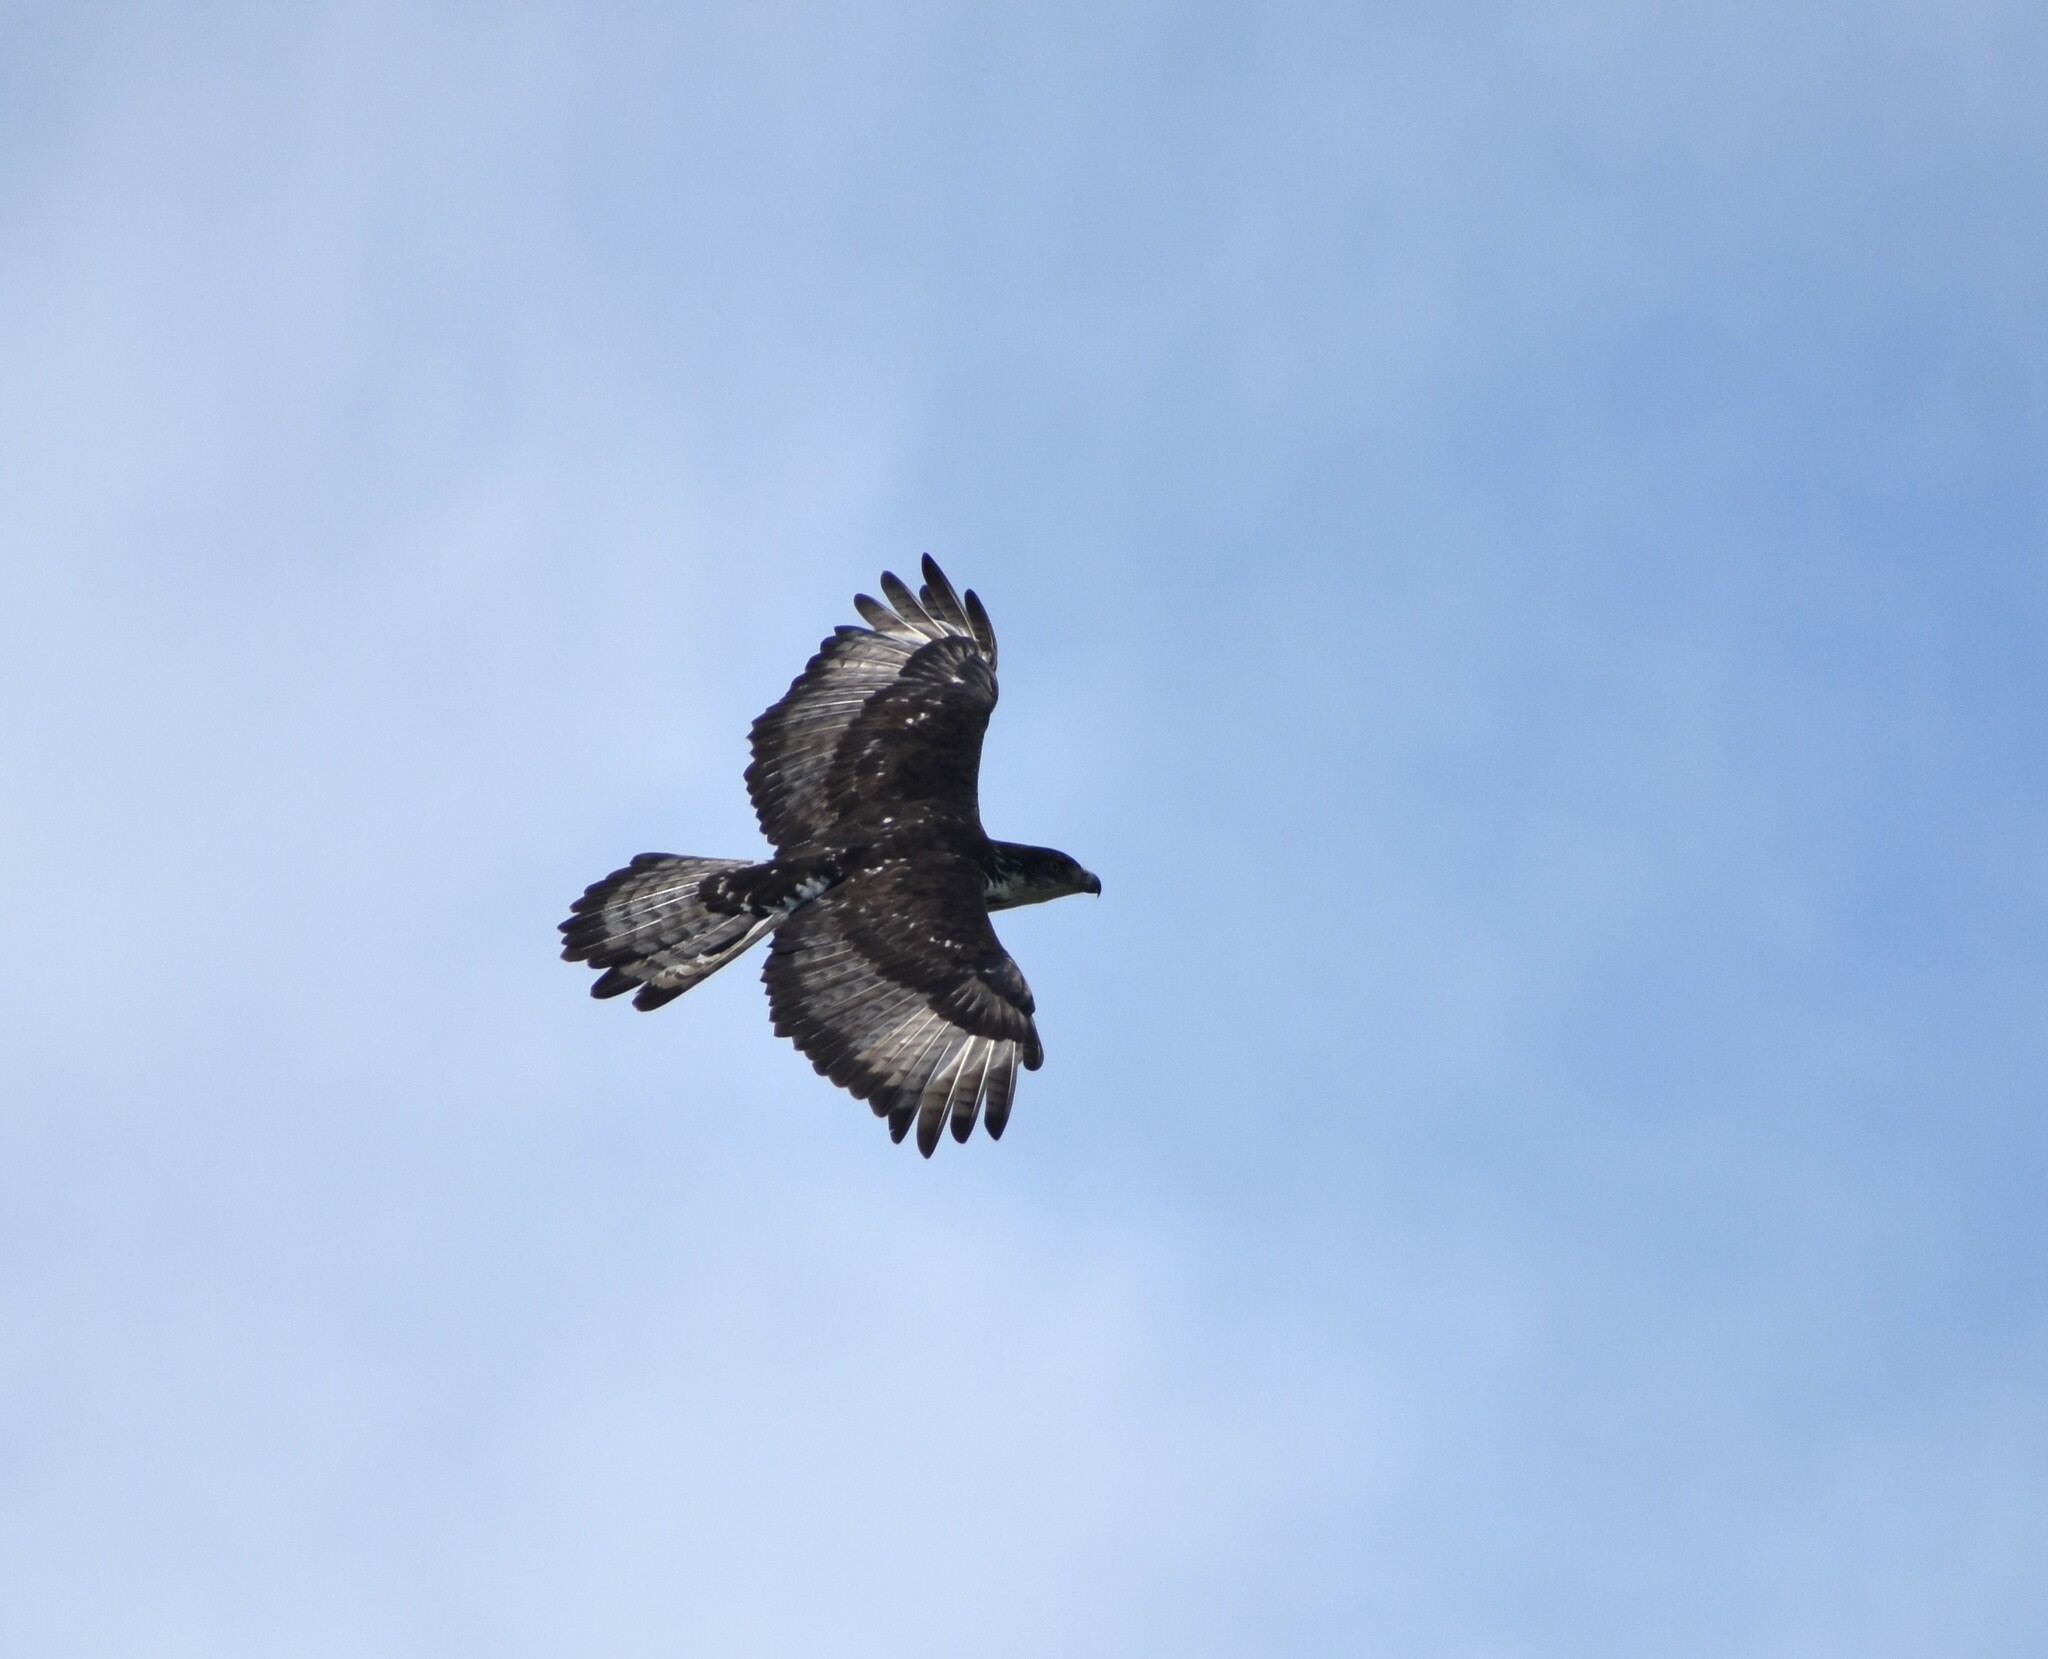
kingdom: Animalia
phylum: Chordata
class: Aves
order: Accipitriformes
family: Accipitridae
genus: Aquila
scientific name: Aquila spilogaster
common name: African hawk-eagle
